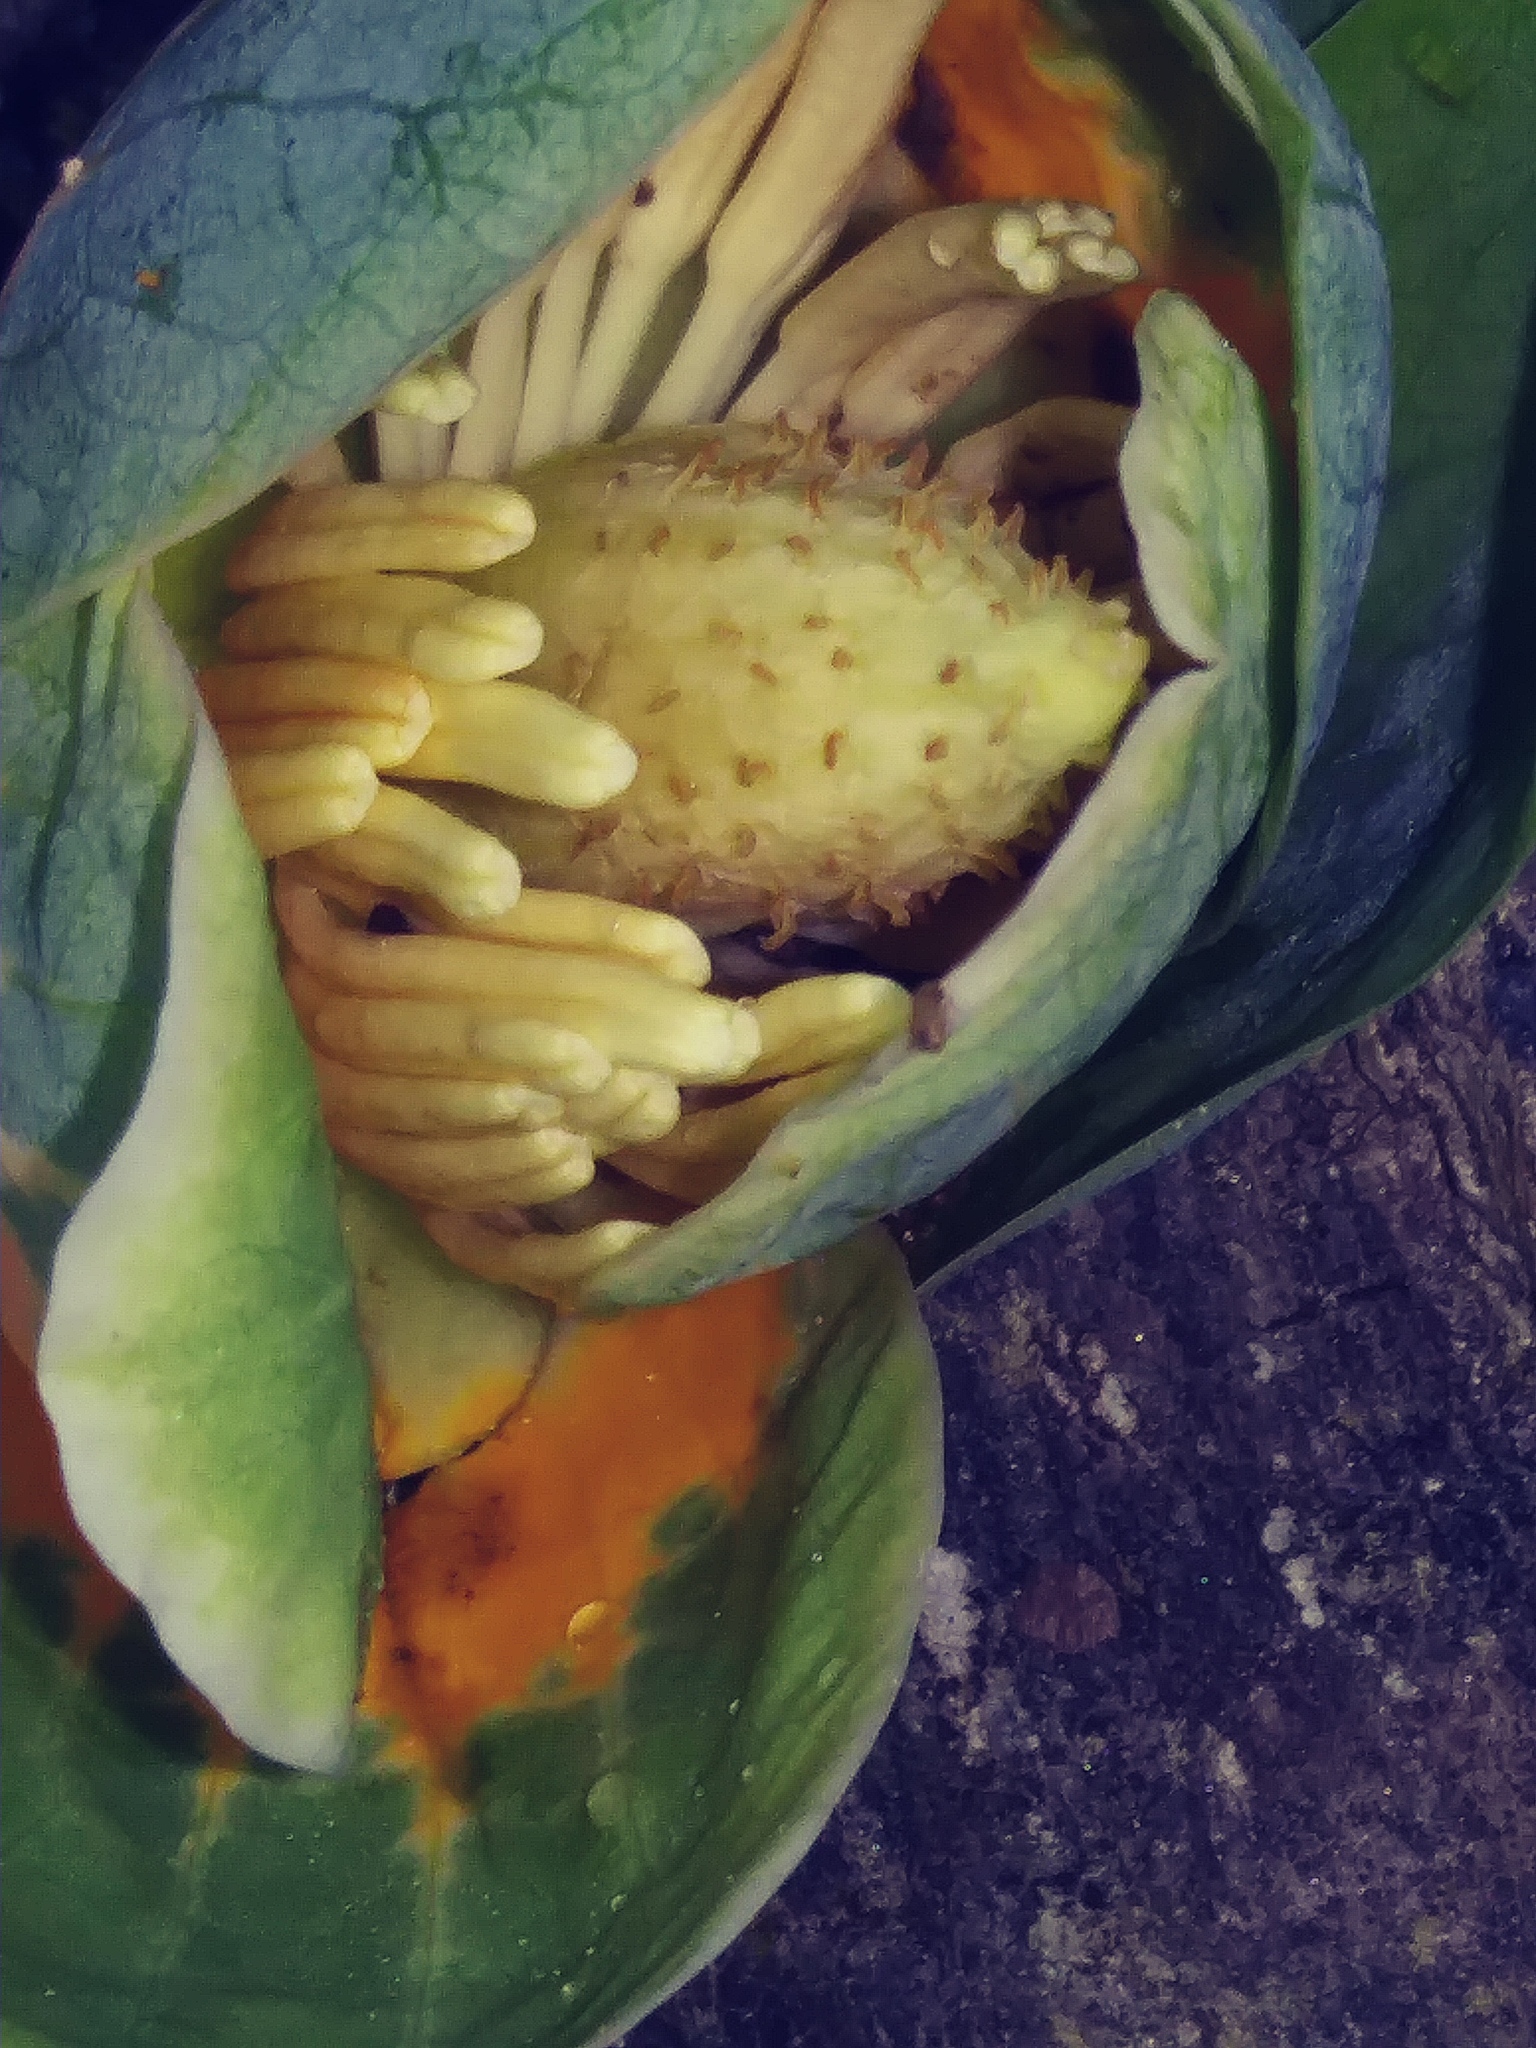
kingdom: Plantae
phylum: Tracheophyta
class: Magnoliopsida
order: Magnoliales
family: Magnoliaceae
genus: Liriodendron
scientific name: Liriodendron tulipifera
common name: Tulip tree
